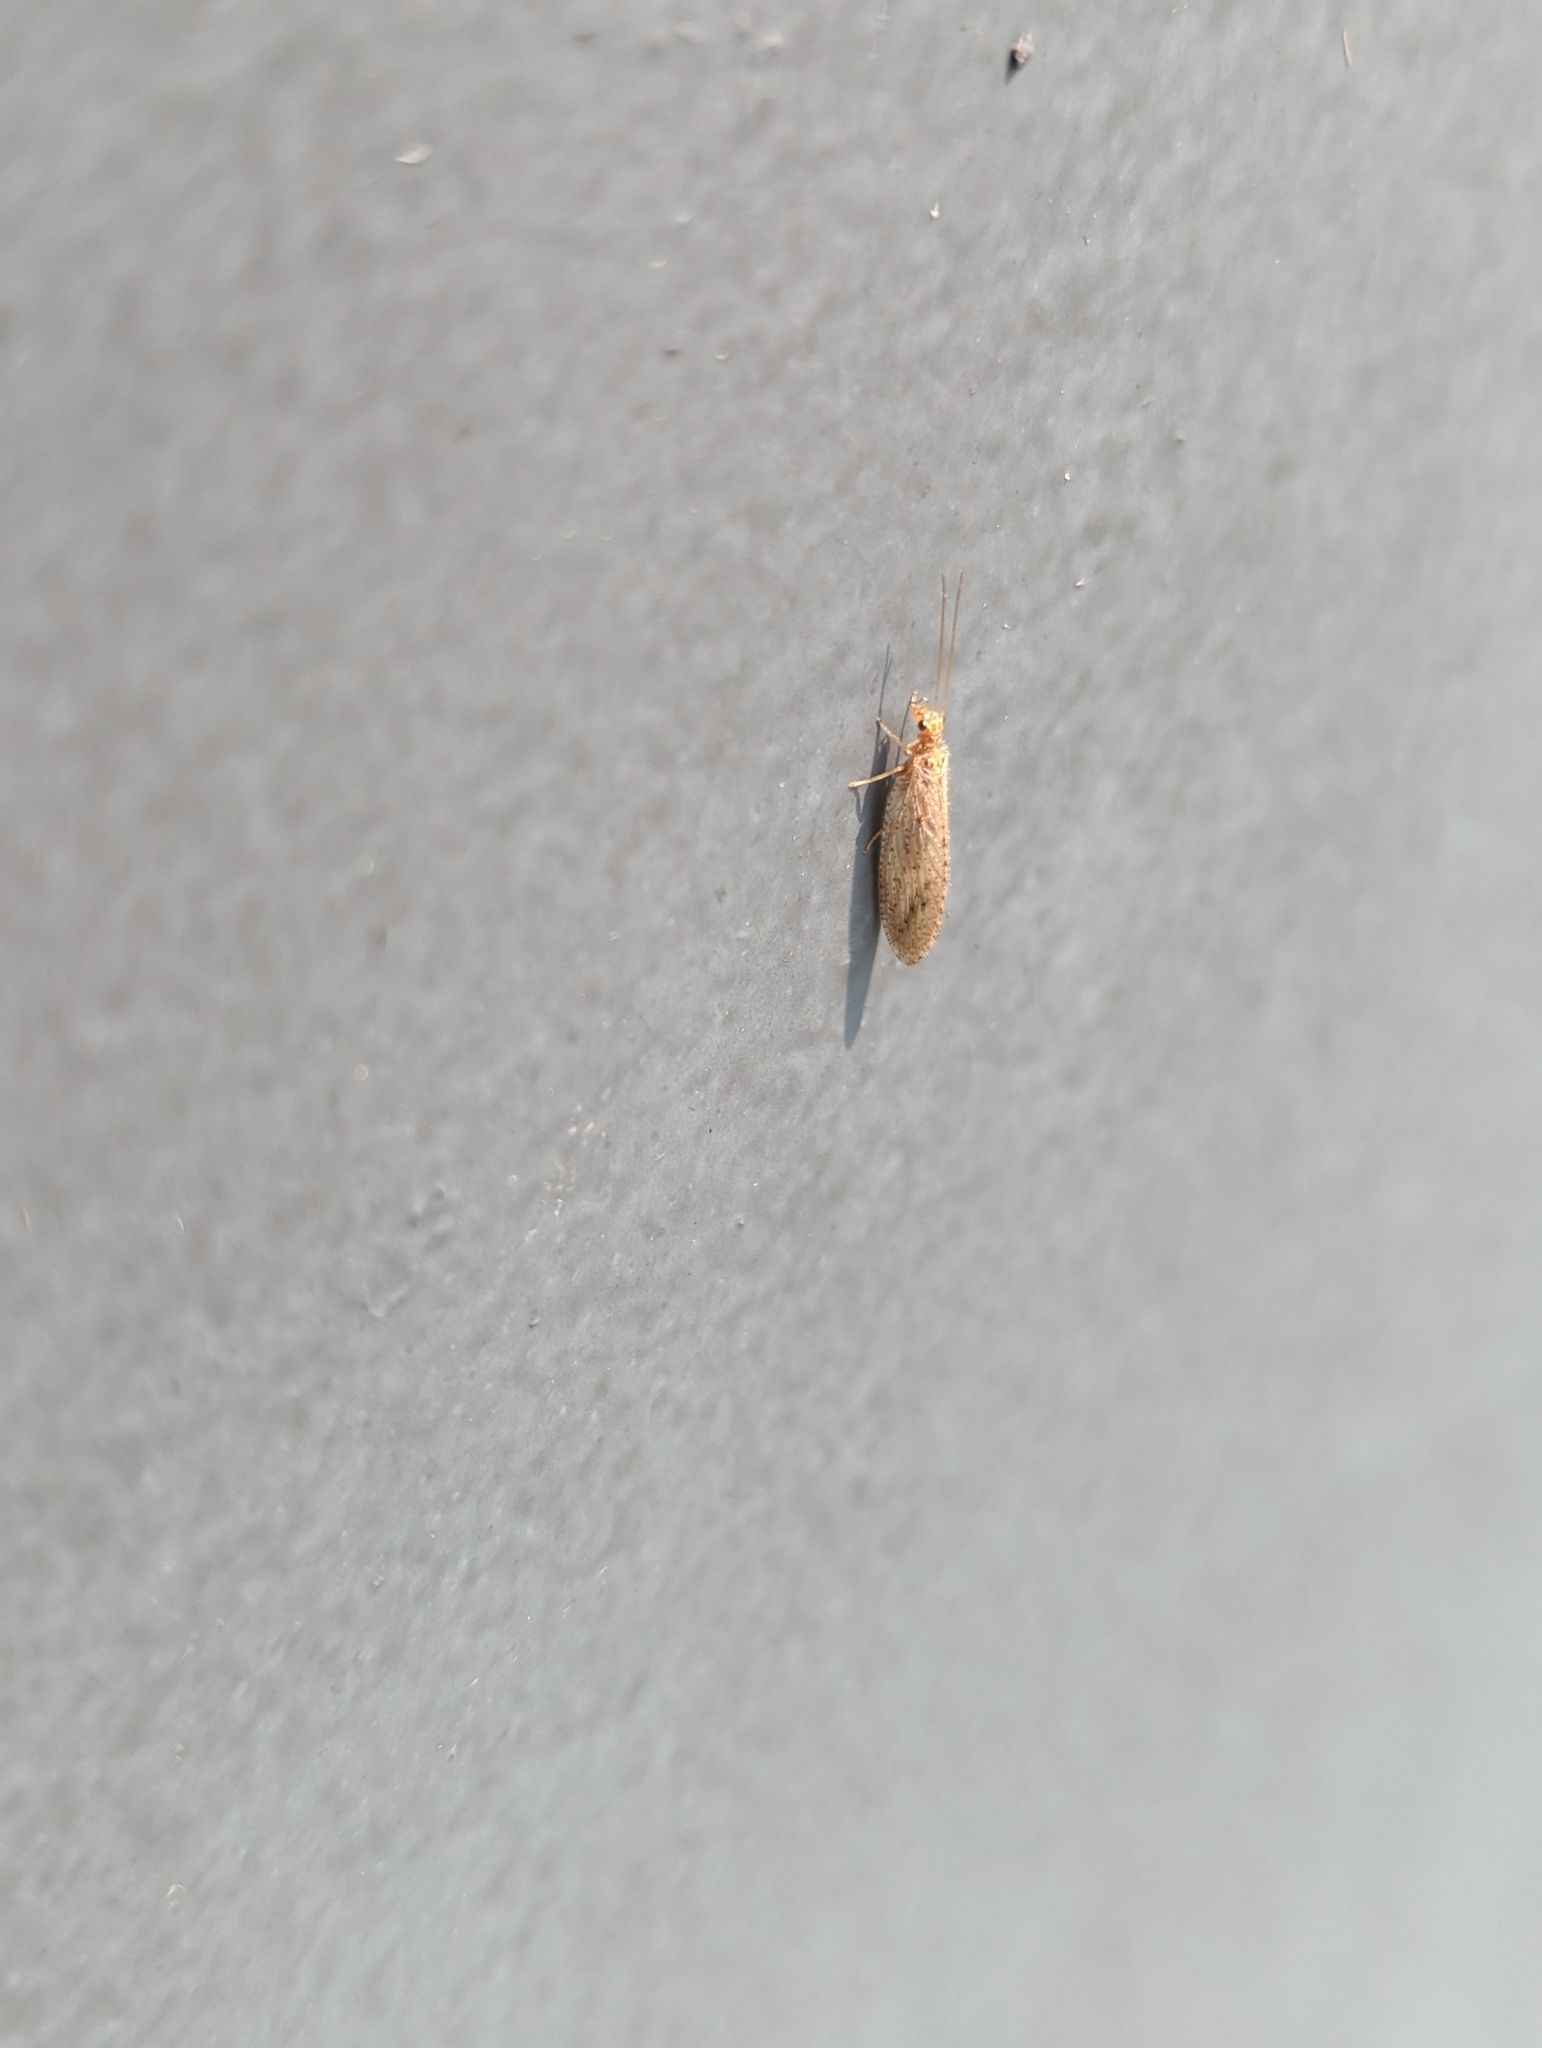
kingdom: Animalia
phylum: Arthropoda
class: Insecta
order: Neuroptera
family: Hemerobiidae
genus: Micromus
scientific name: Micromus subanticus
